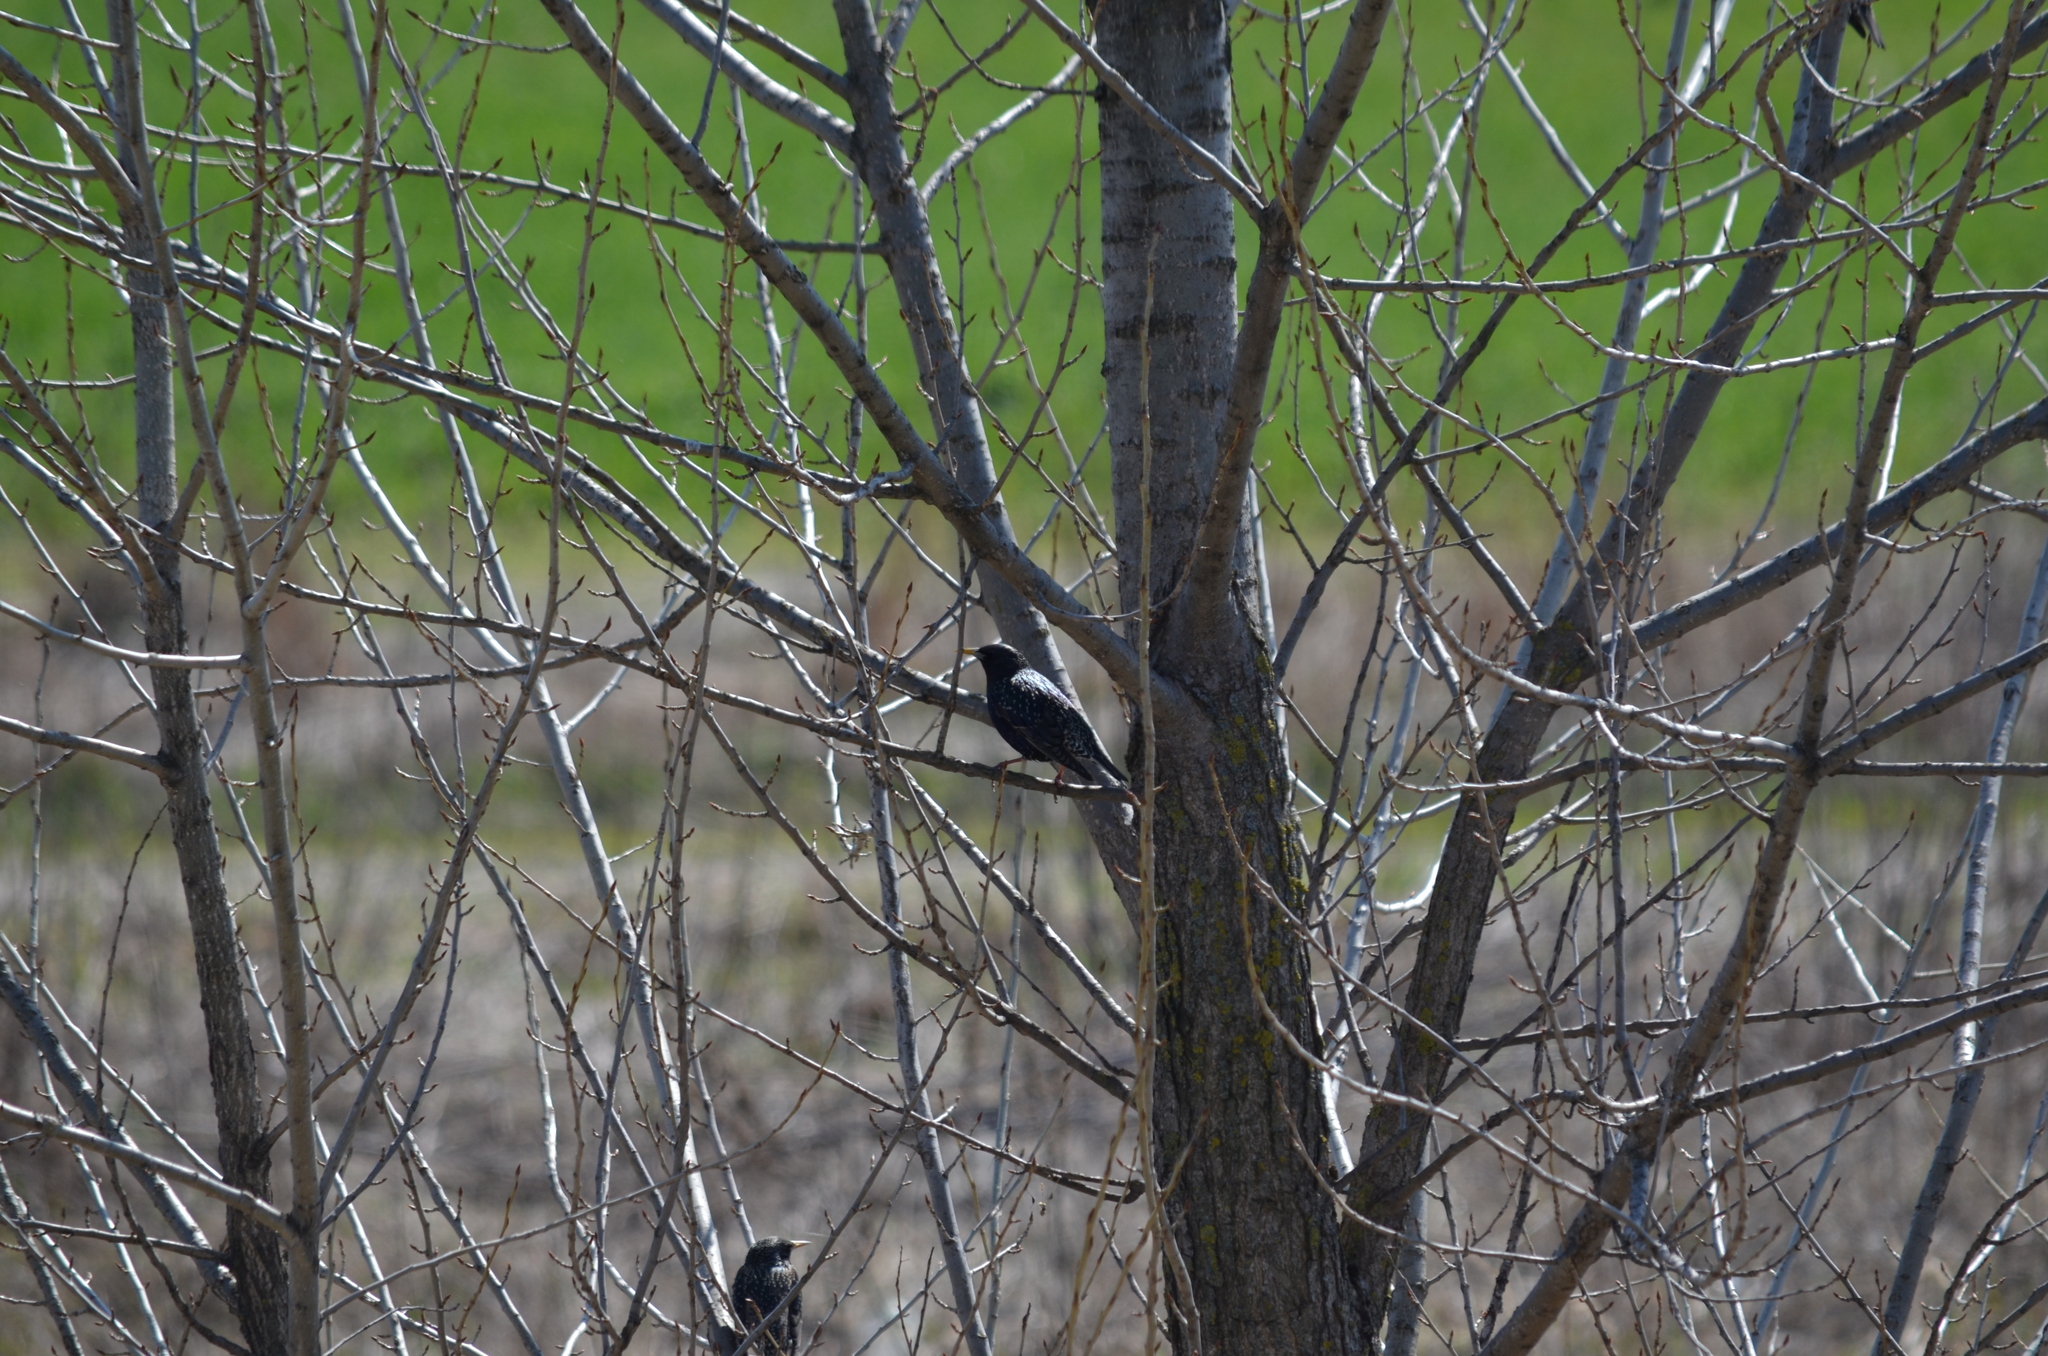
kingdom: Animalia
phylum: Chordata
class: Aves
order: Passeriformes
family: Sturnidae
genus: Sturnus
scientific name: Sturnus vulgaris
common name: Common starling
